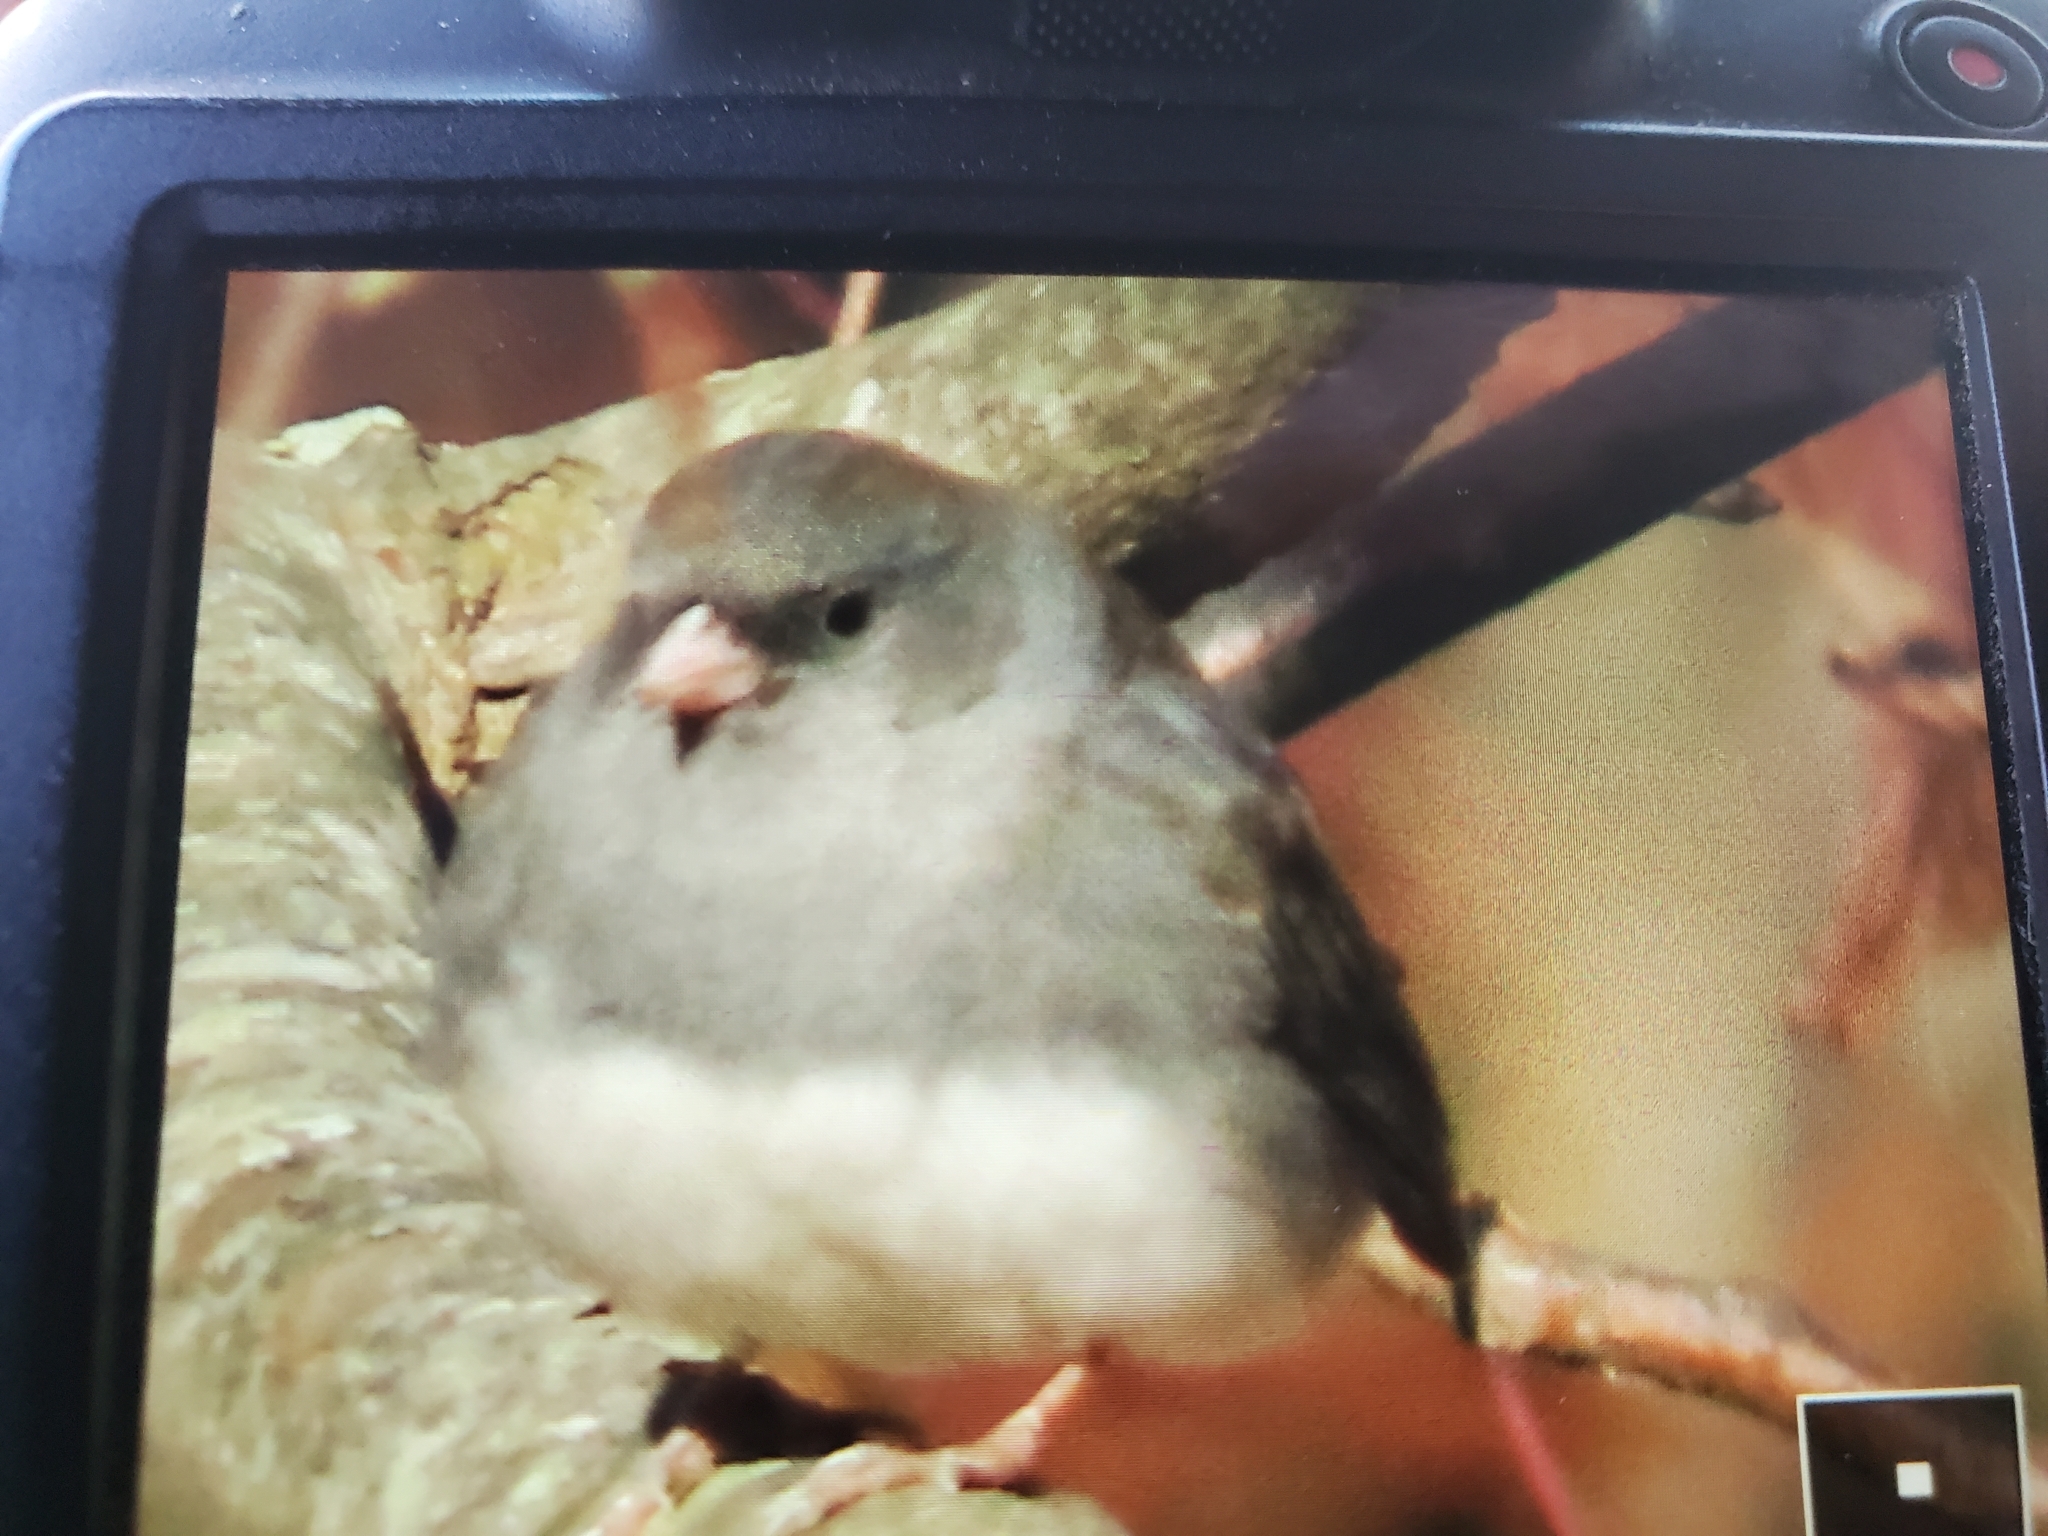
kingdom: Animalia
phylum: Chordata
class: Aves
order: Passeriformes
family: Passerellidae
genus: Junco
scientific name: Junco hyemalis
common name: Dark-eyed junco
